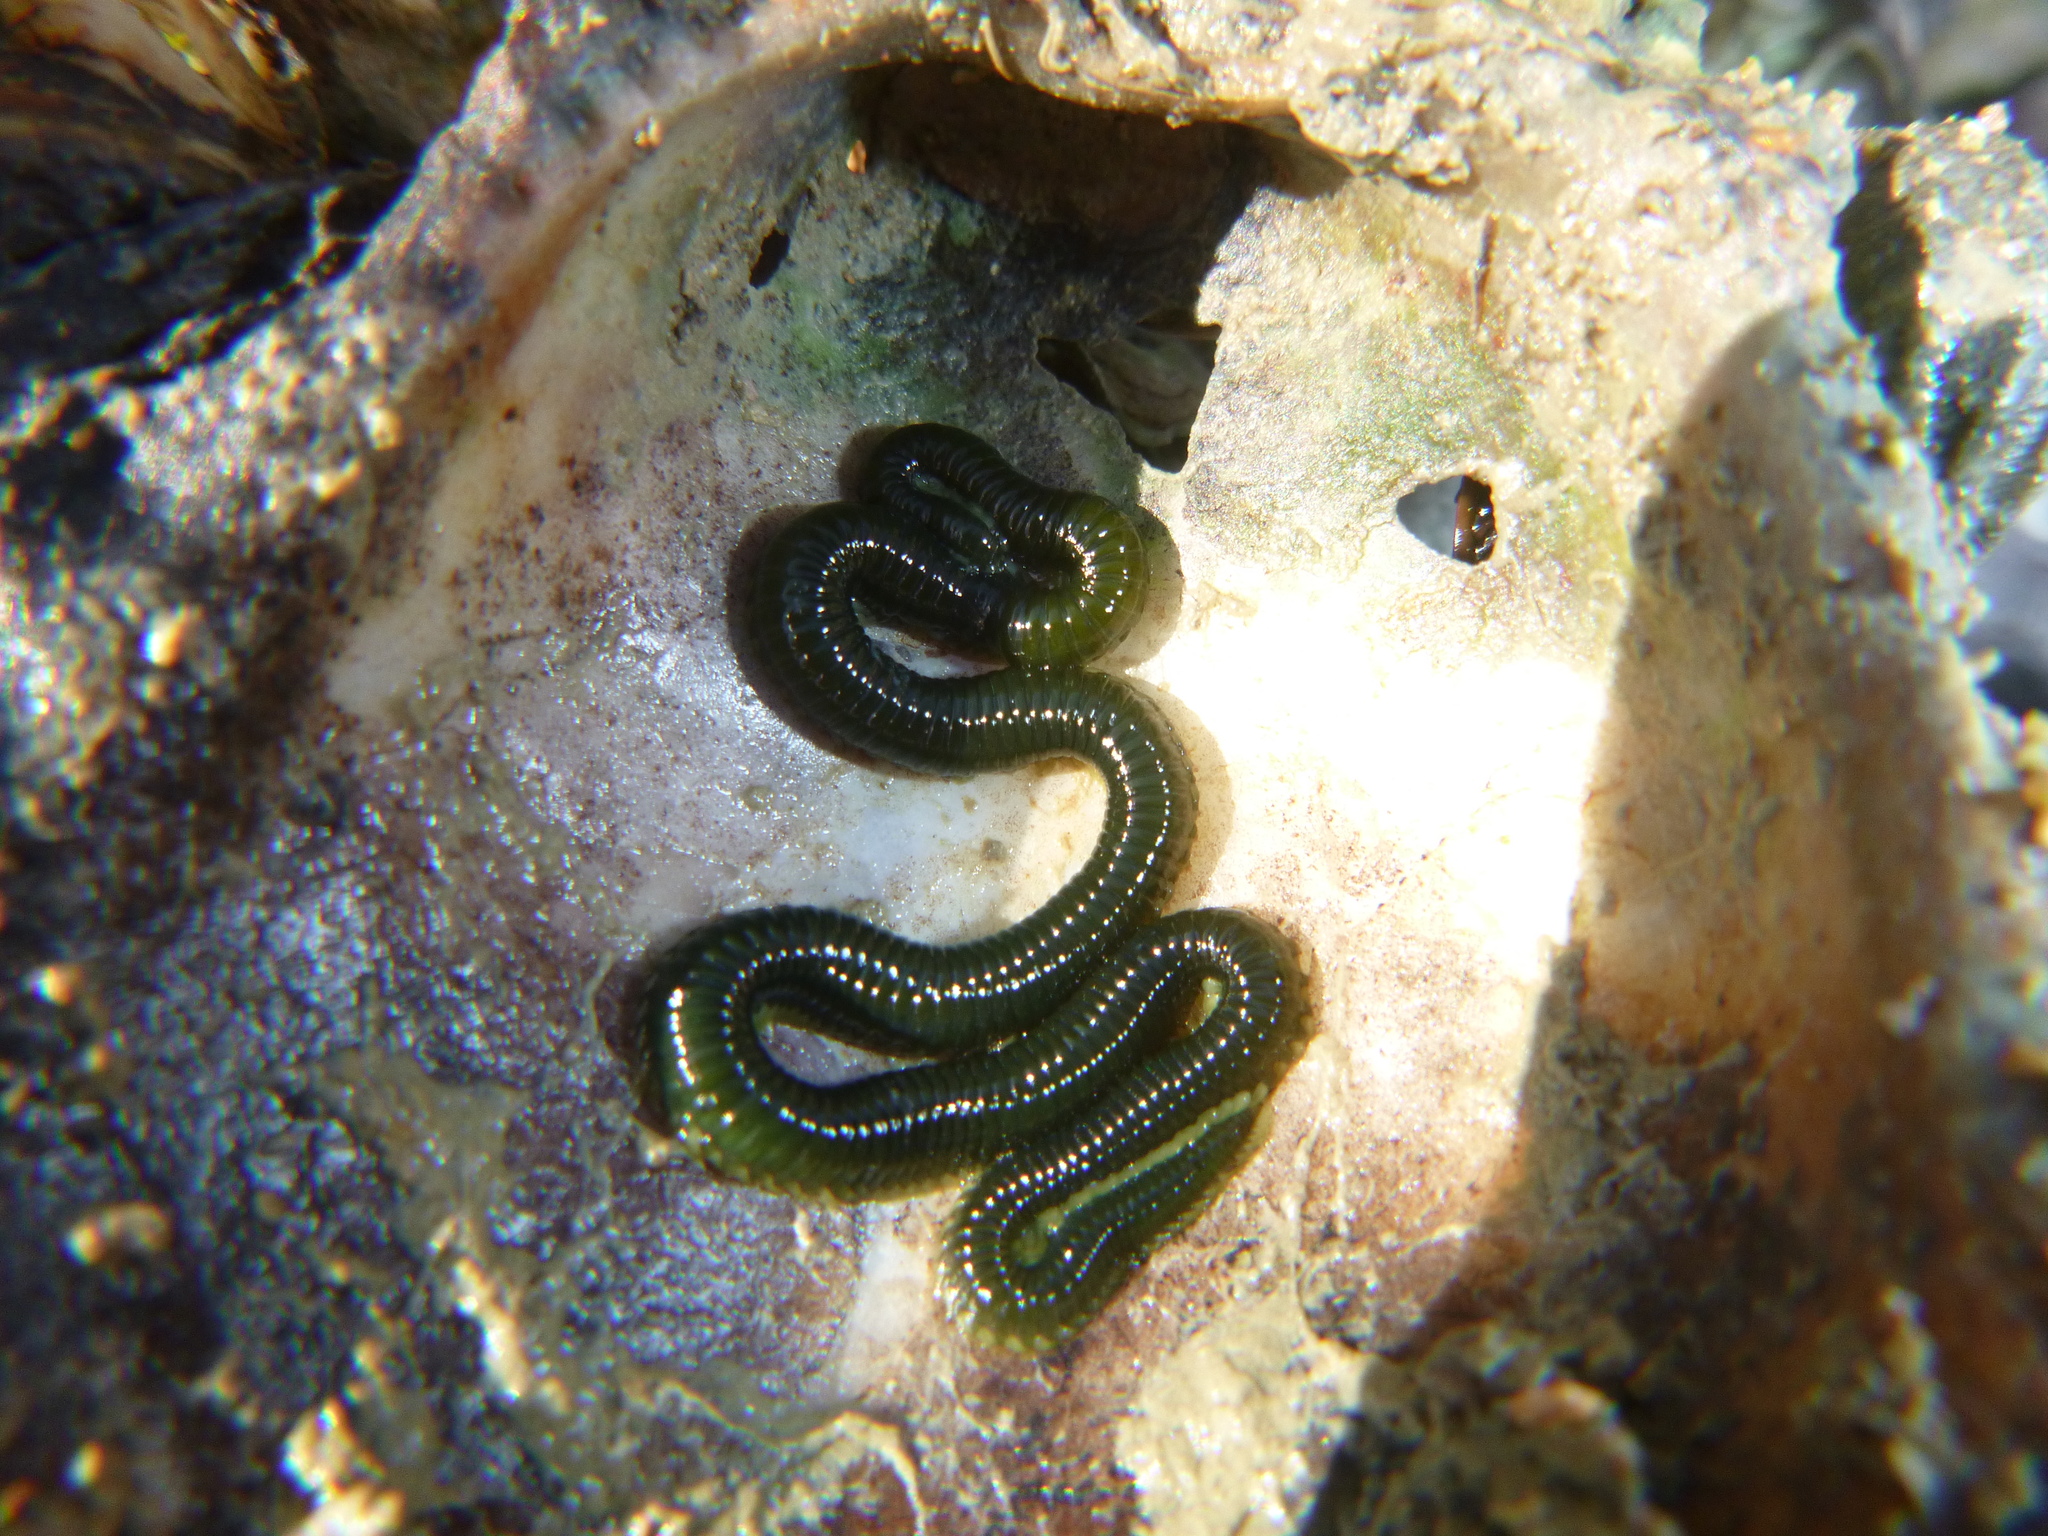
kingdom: Animalia
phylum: Annelida
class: Polychaeta
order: Phyllodocida
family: Phyllodocidae
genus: Eulalia
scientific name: Eulalia microphylla
